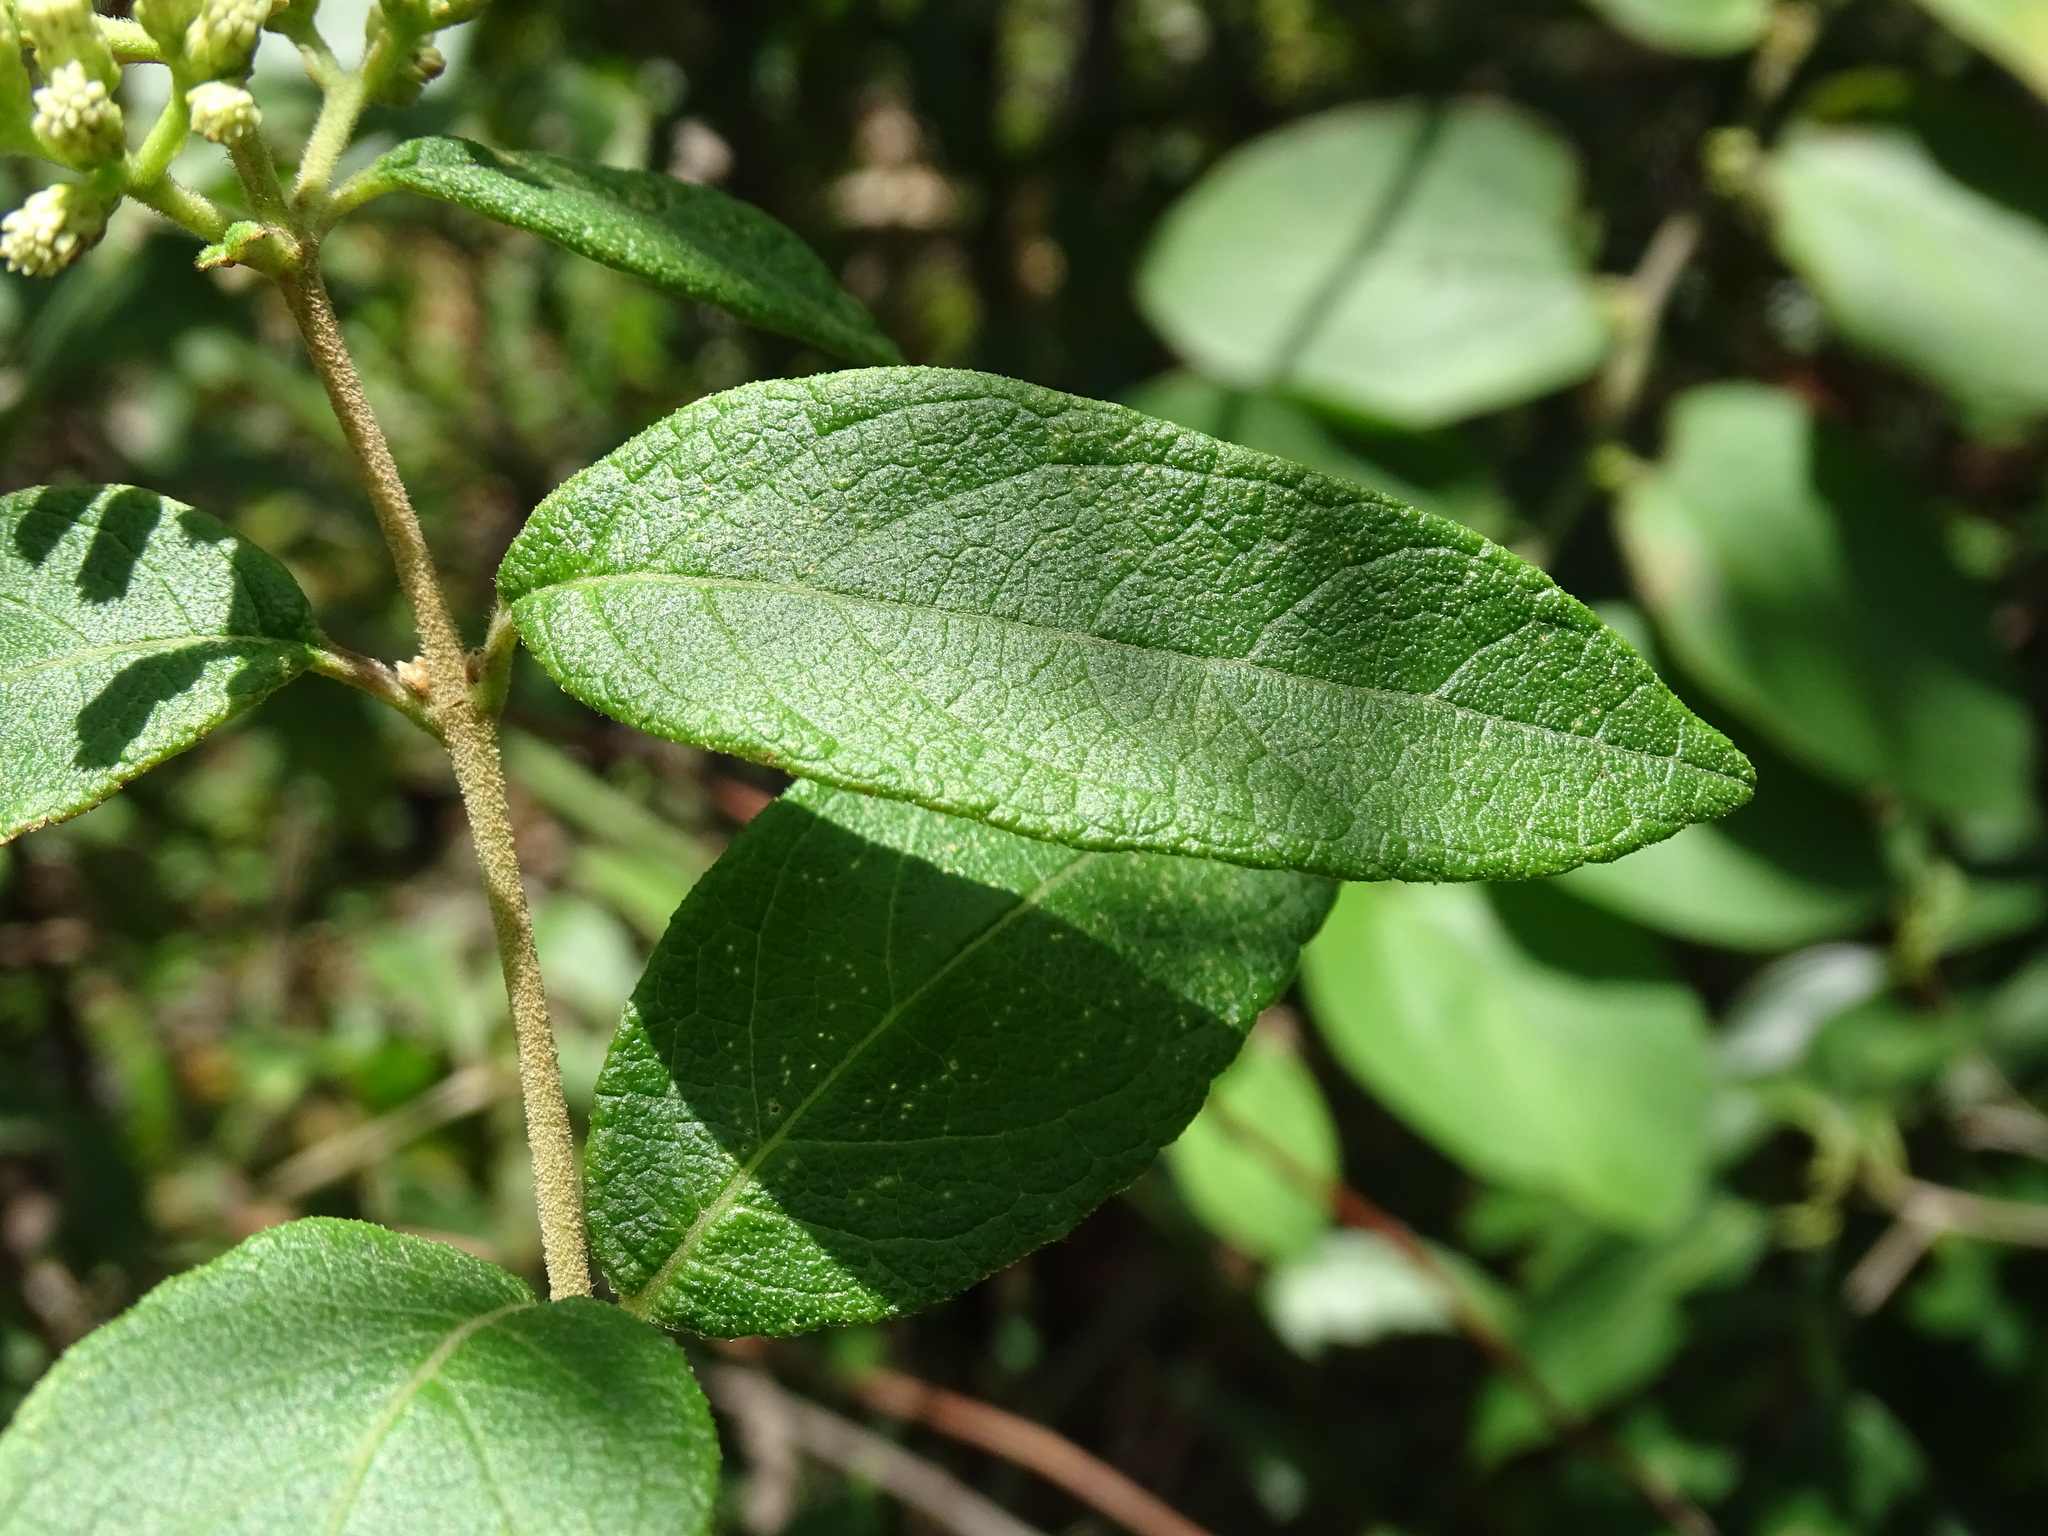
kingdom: Plantae
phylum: Tracheophyta
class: Magnoliopsida
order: Asterales
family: Asteraceae
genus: Otopappus
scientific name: Otopappus guatemalensis
